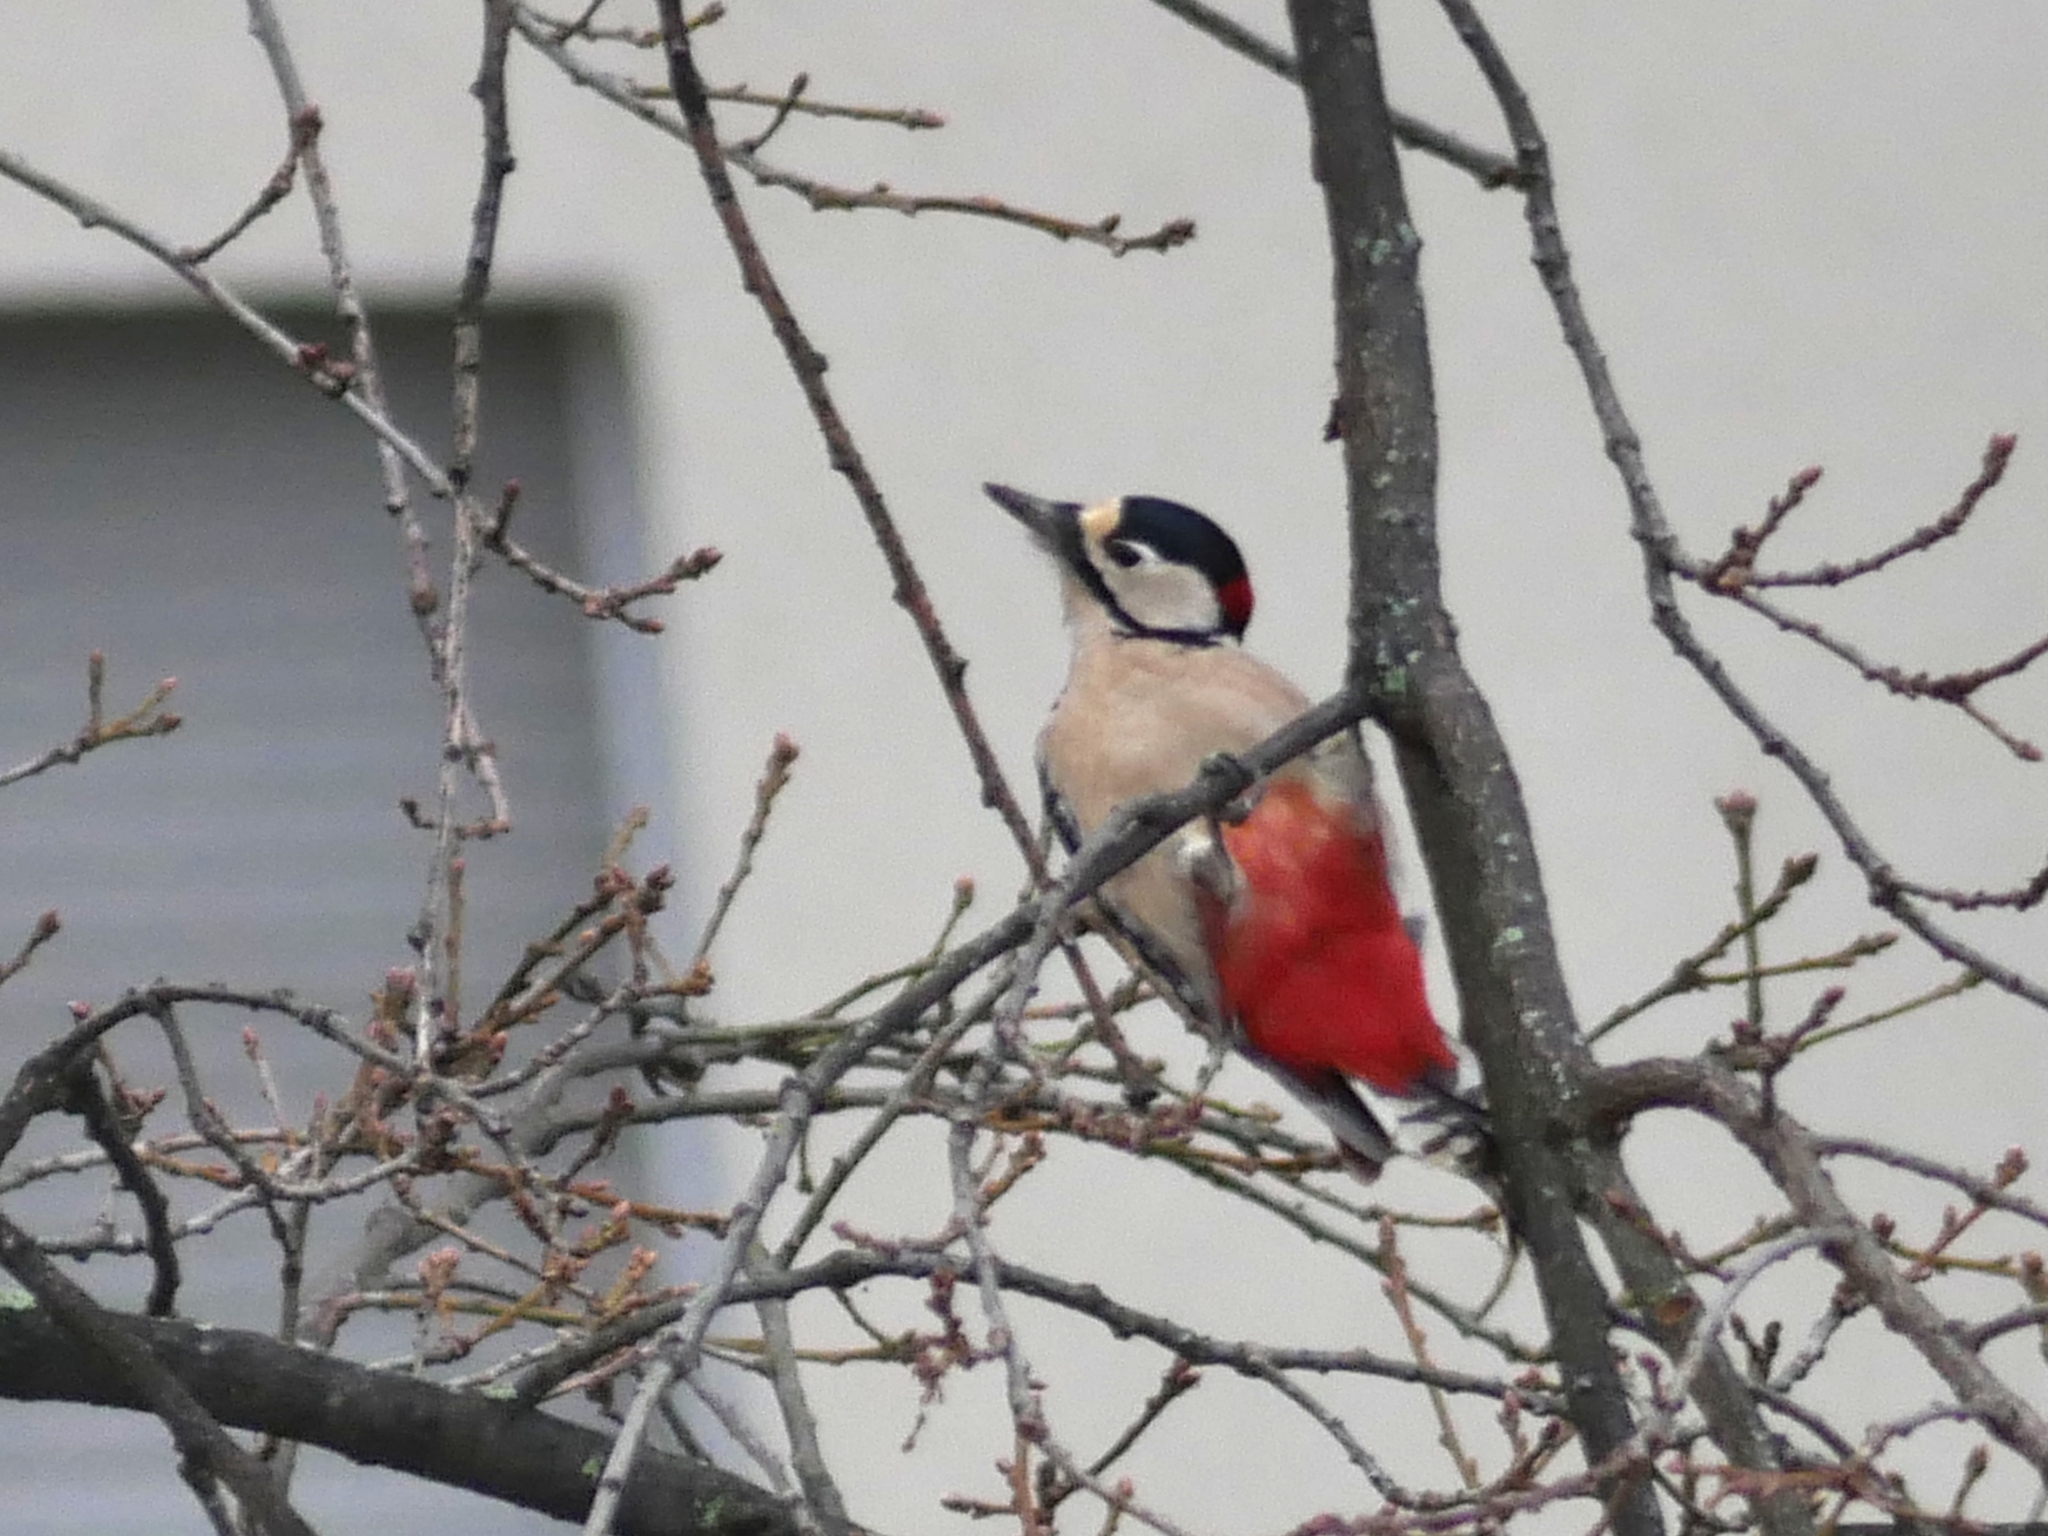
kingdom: Animalia
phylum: Chordata
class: Aves
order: Piciformes
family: Picidae
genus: Dendrocopos
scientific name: Dendrocopos major
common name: Great spotted woodpecker
